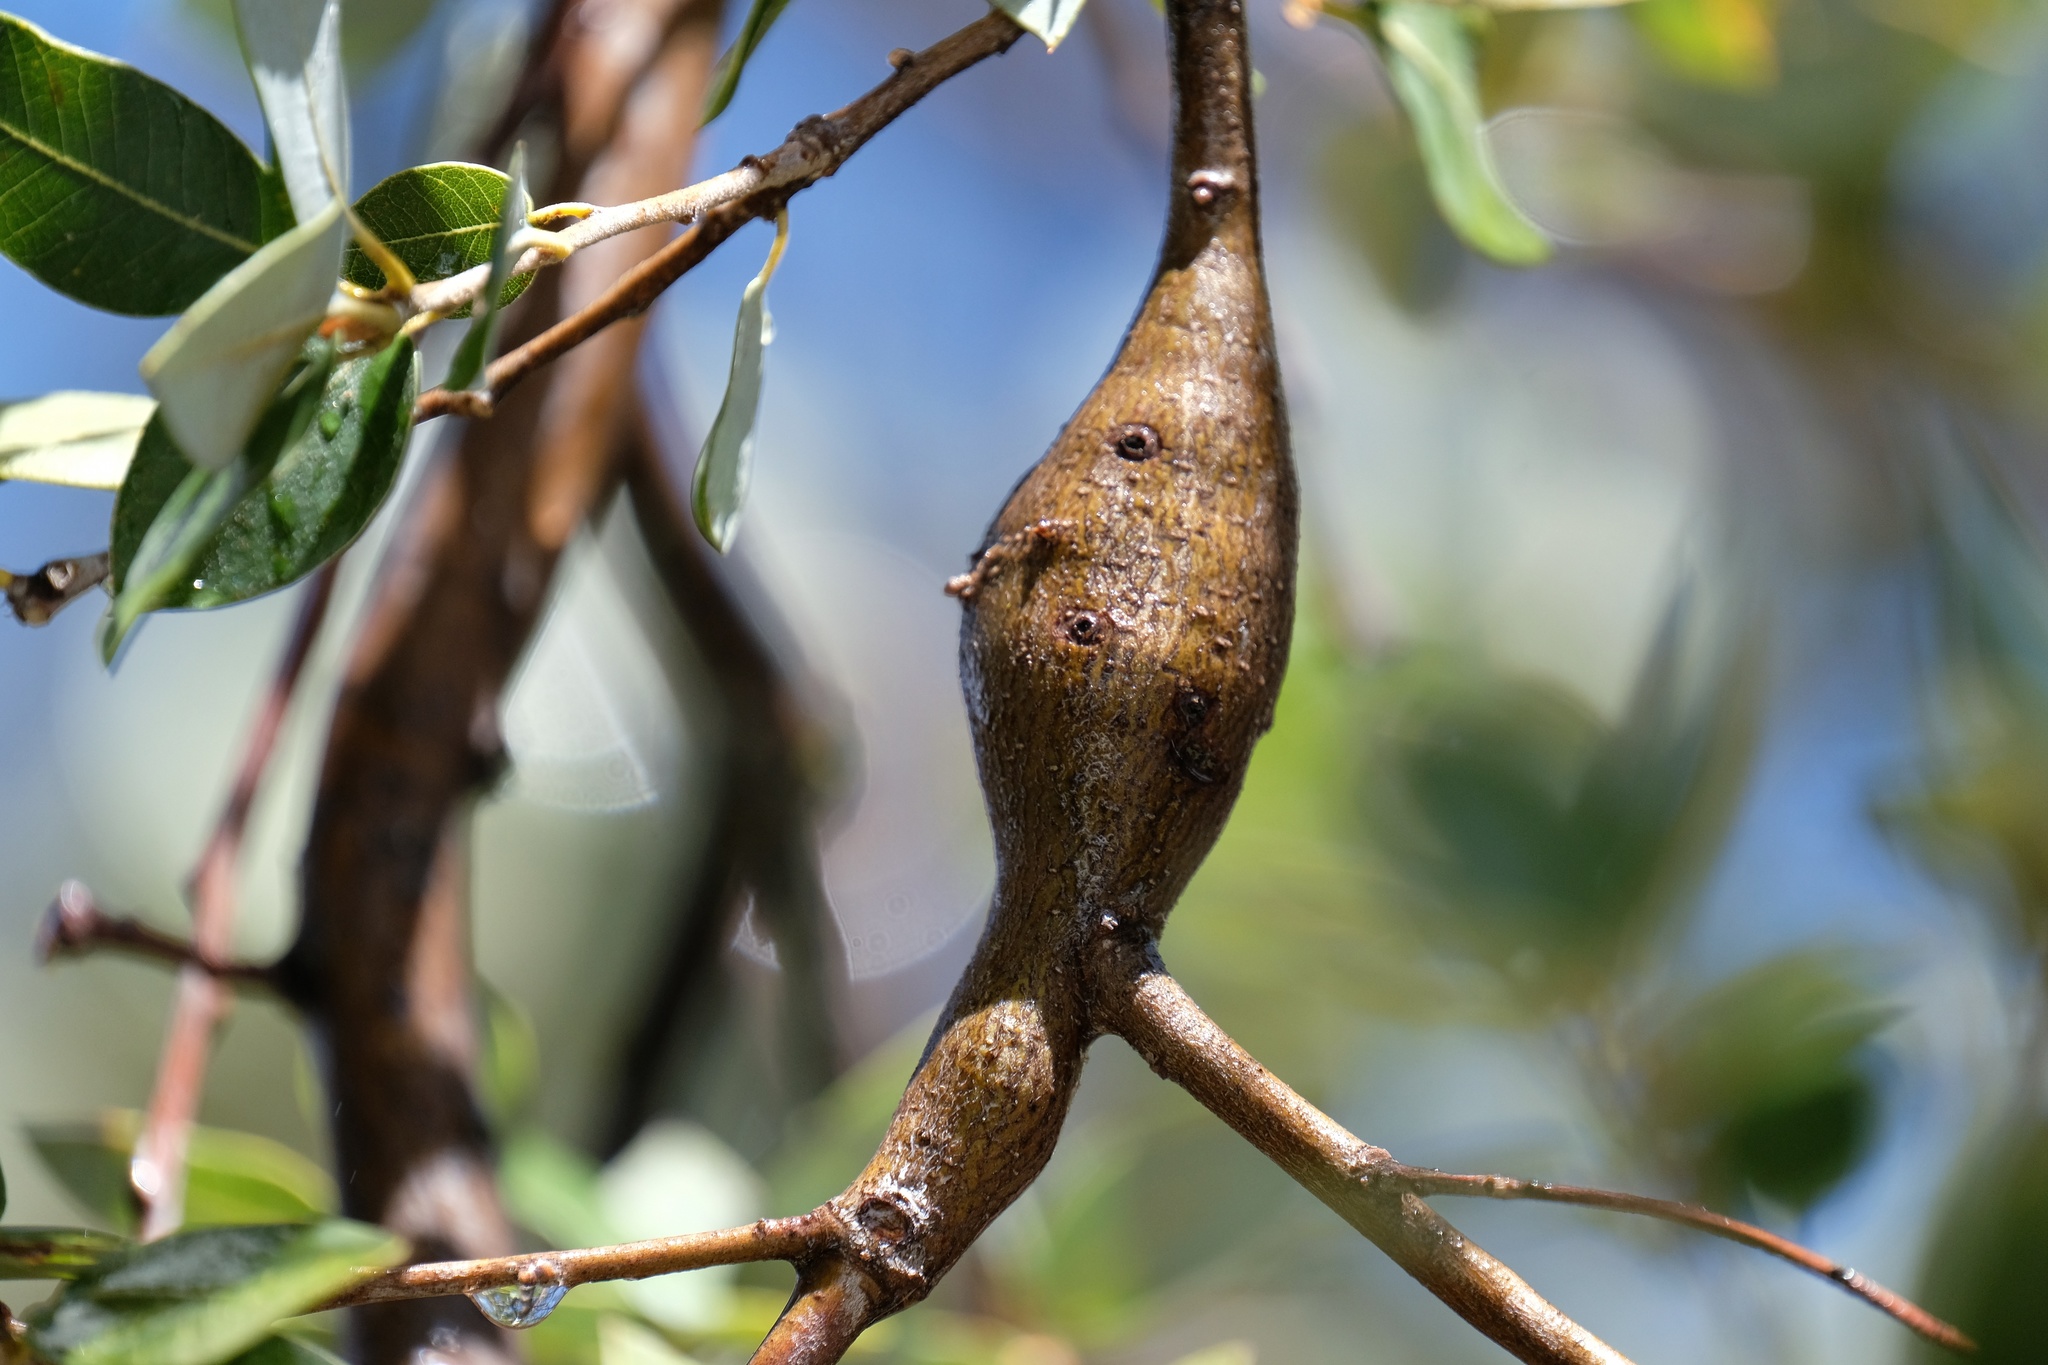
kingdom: Animalia
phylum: Arthropoda
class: Insecta
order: Hymenoptera
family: Cynipidae
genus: Disholcaspis
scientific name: Disholcaspis spectabilis
